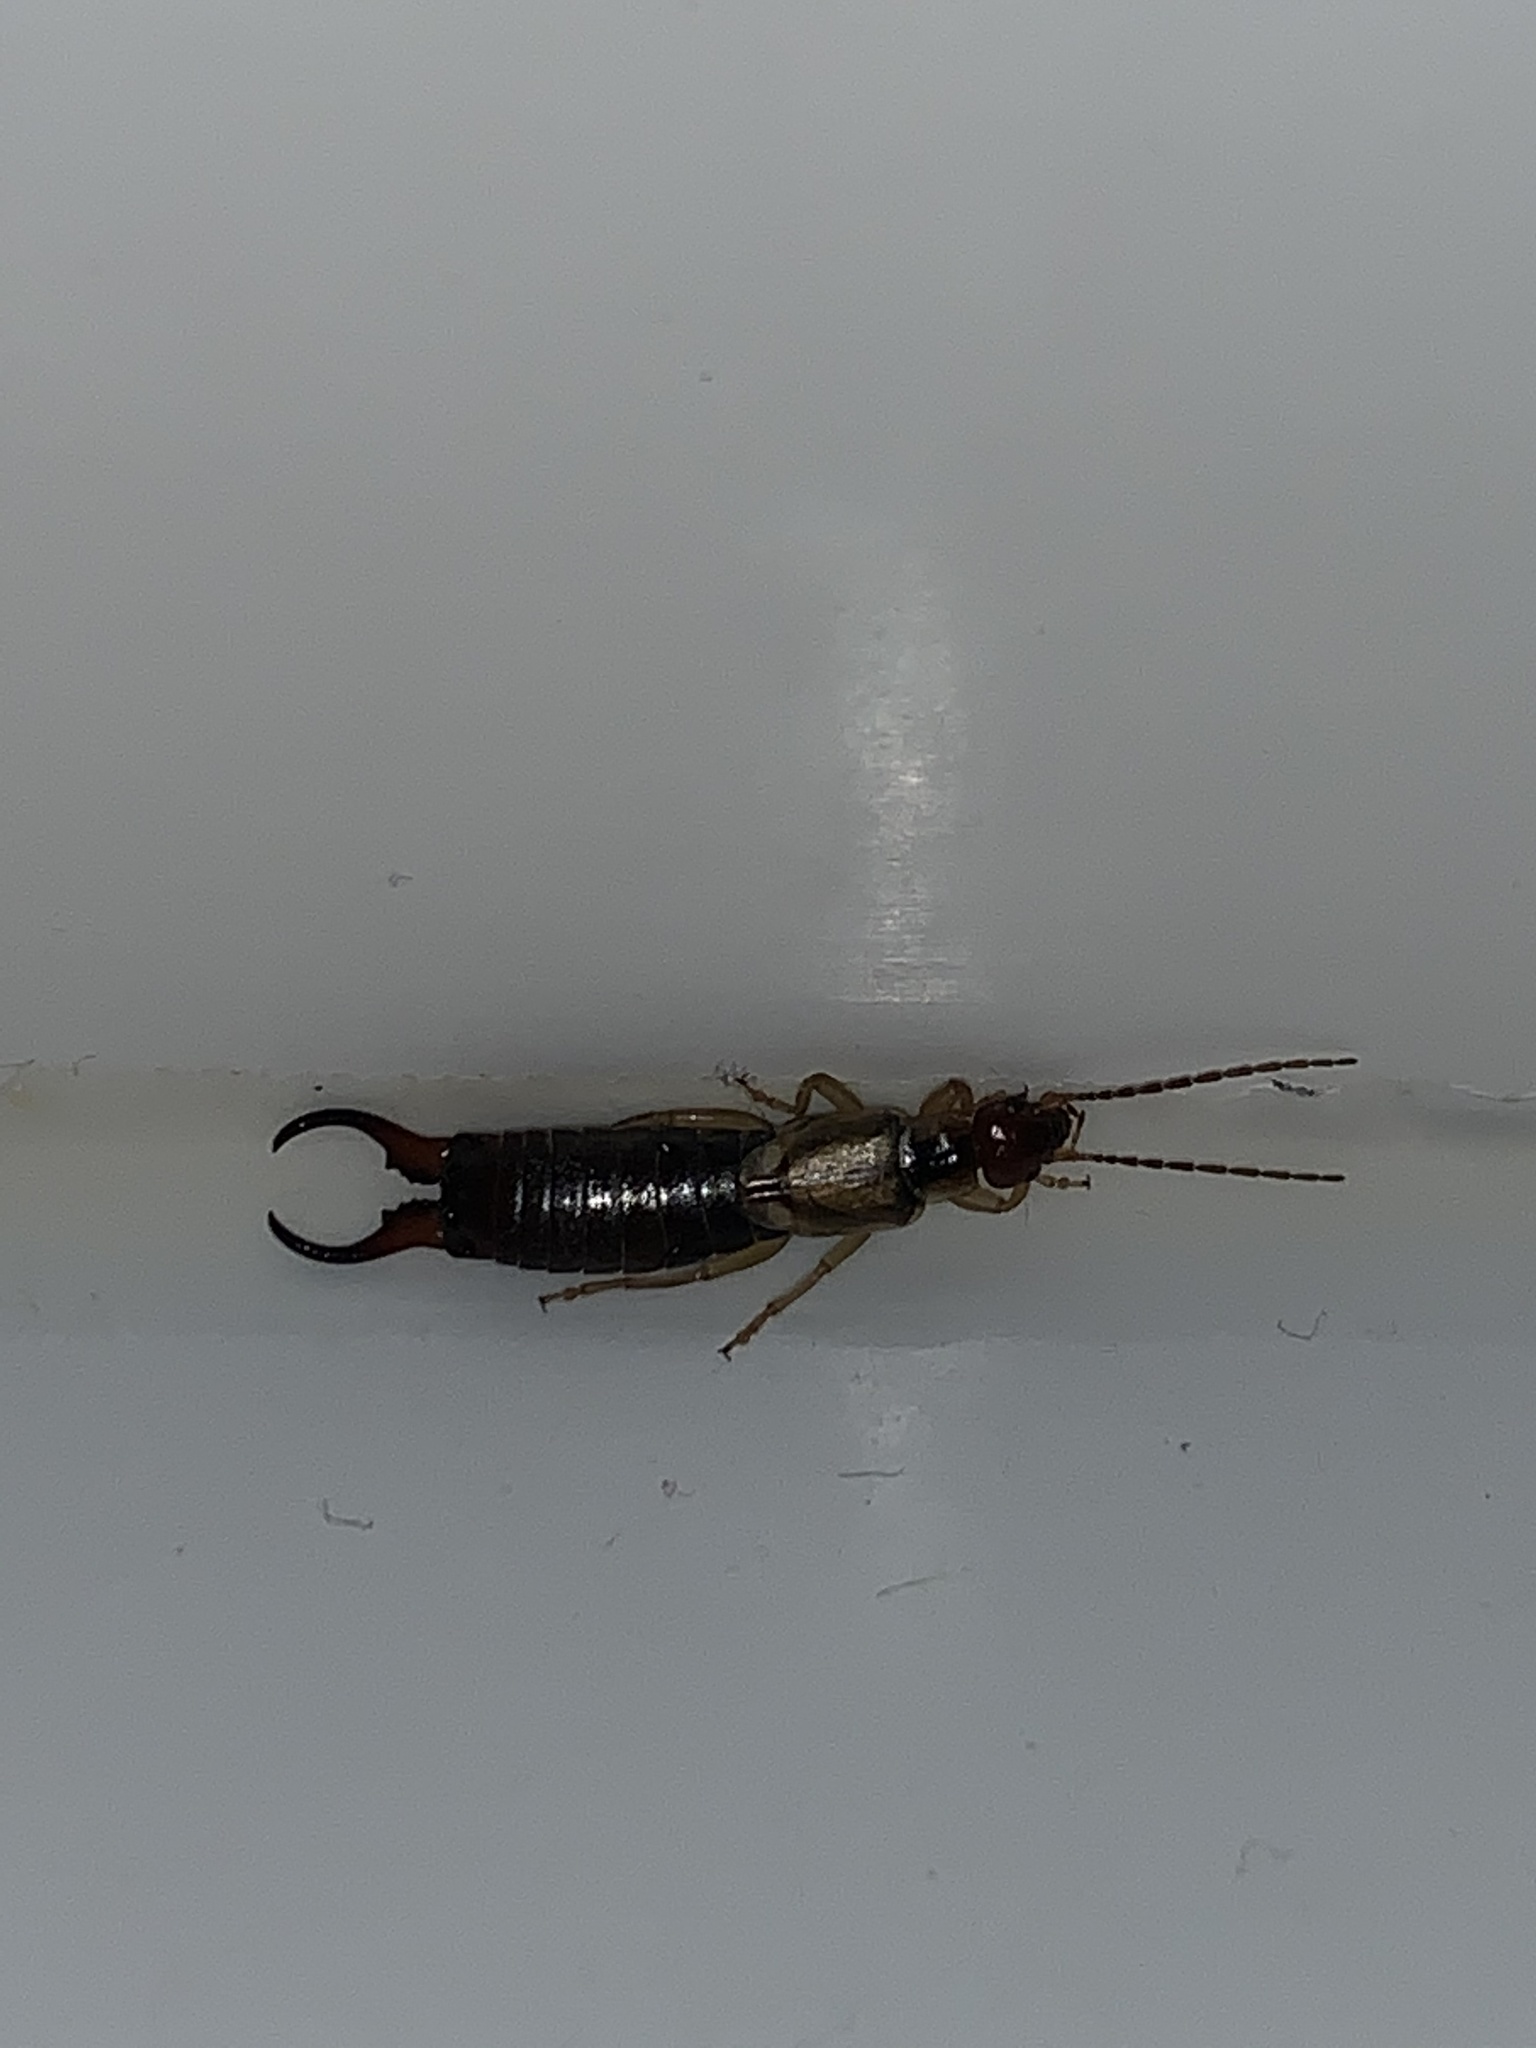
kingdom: Animalia
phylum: Arthropoda
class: Insecta
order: Dermaptera
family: Forficulidae
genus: Forficula
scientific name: Forficula
